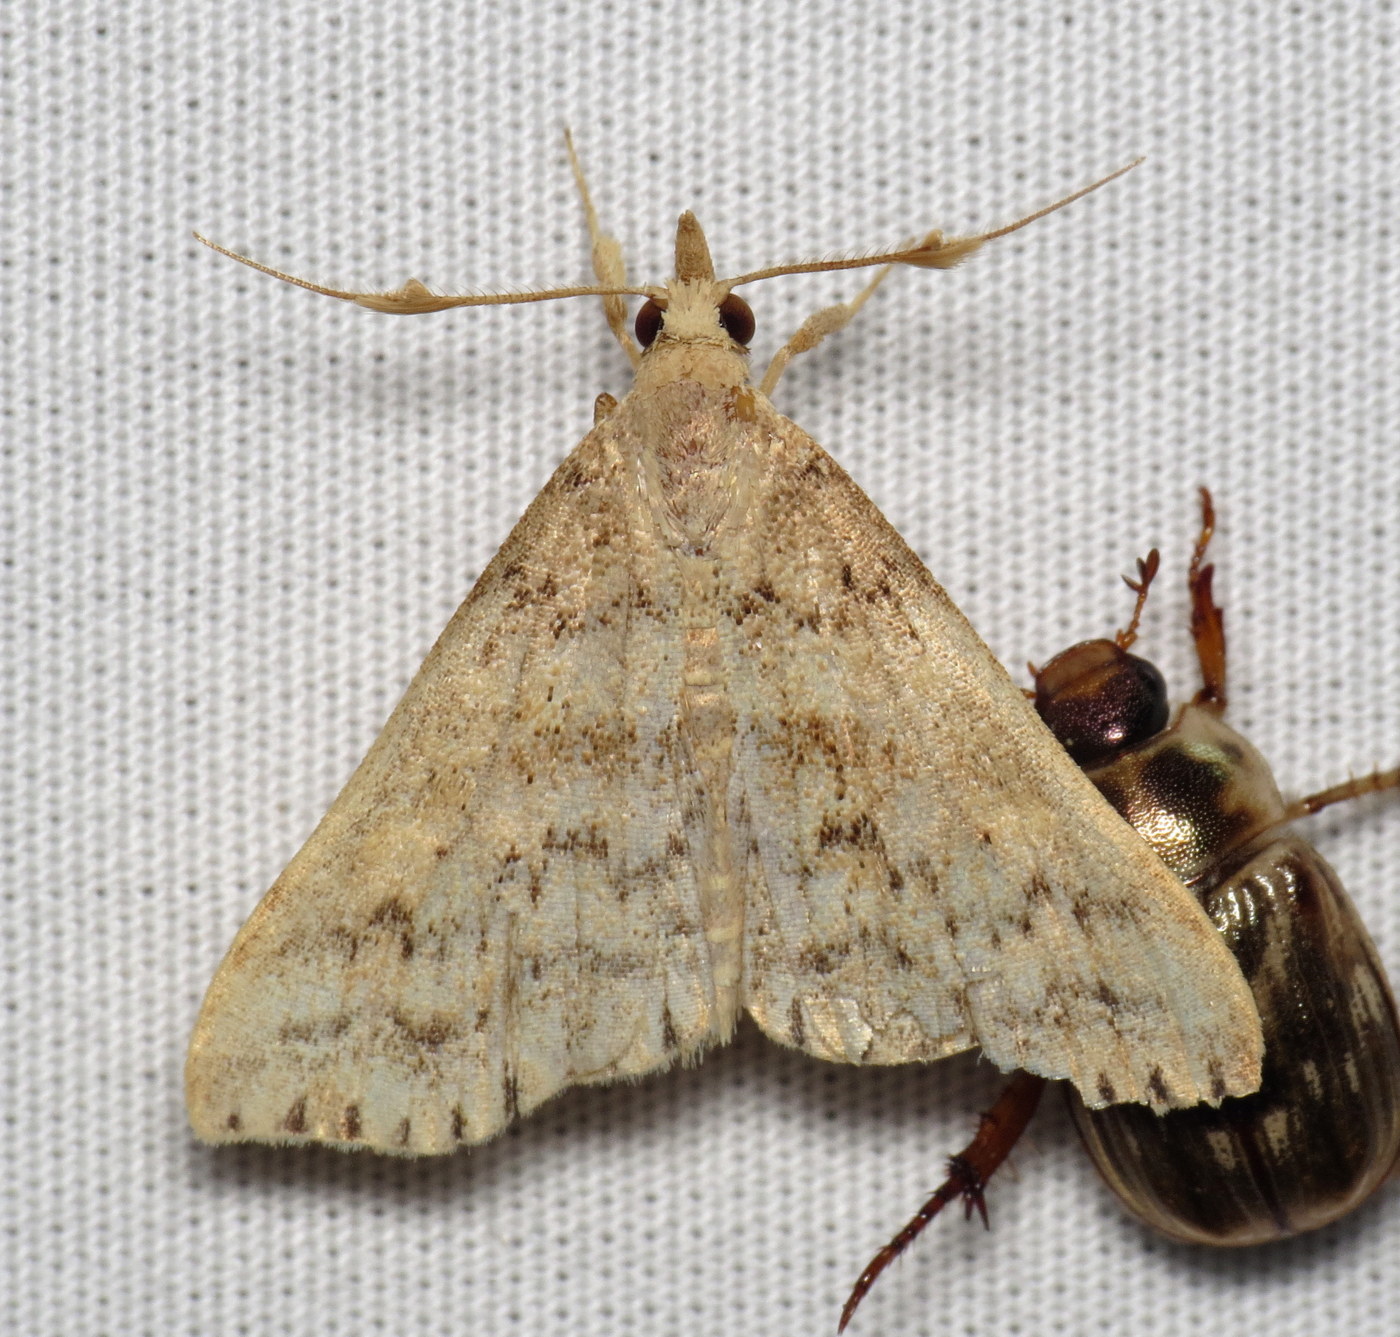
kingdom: Animalia
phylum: Arthropoda
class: Insecta
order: Lepidoptera
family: Erebidae
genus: Renia
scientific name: Renia salusalis
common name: Dotted renia moth
